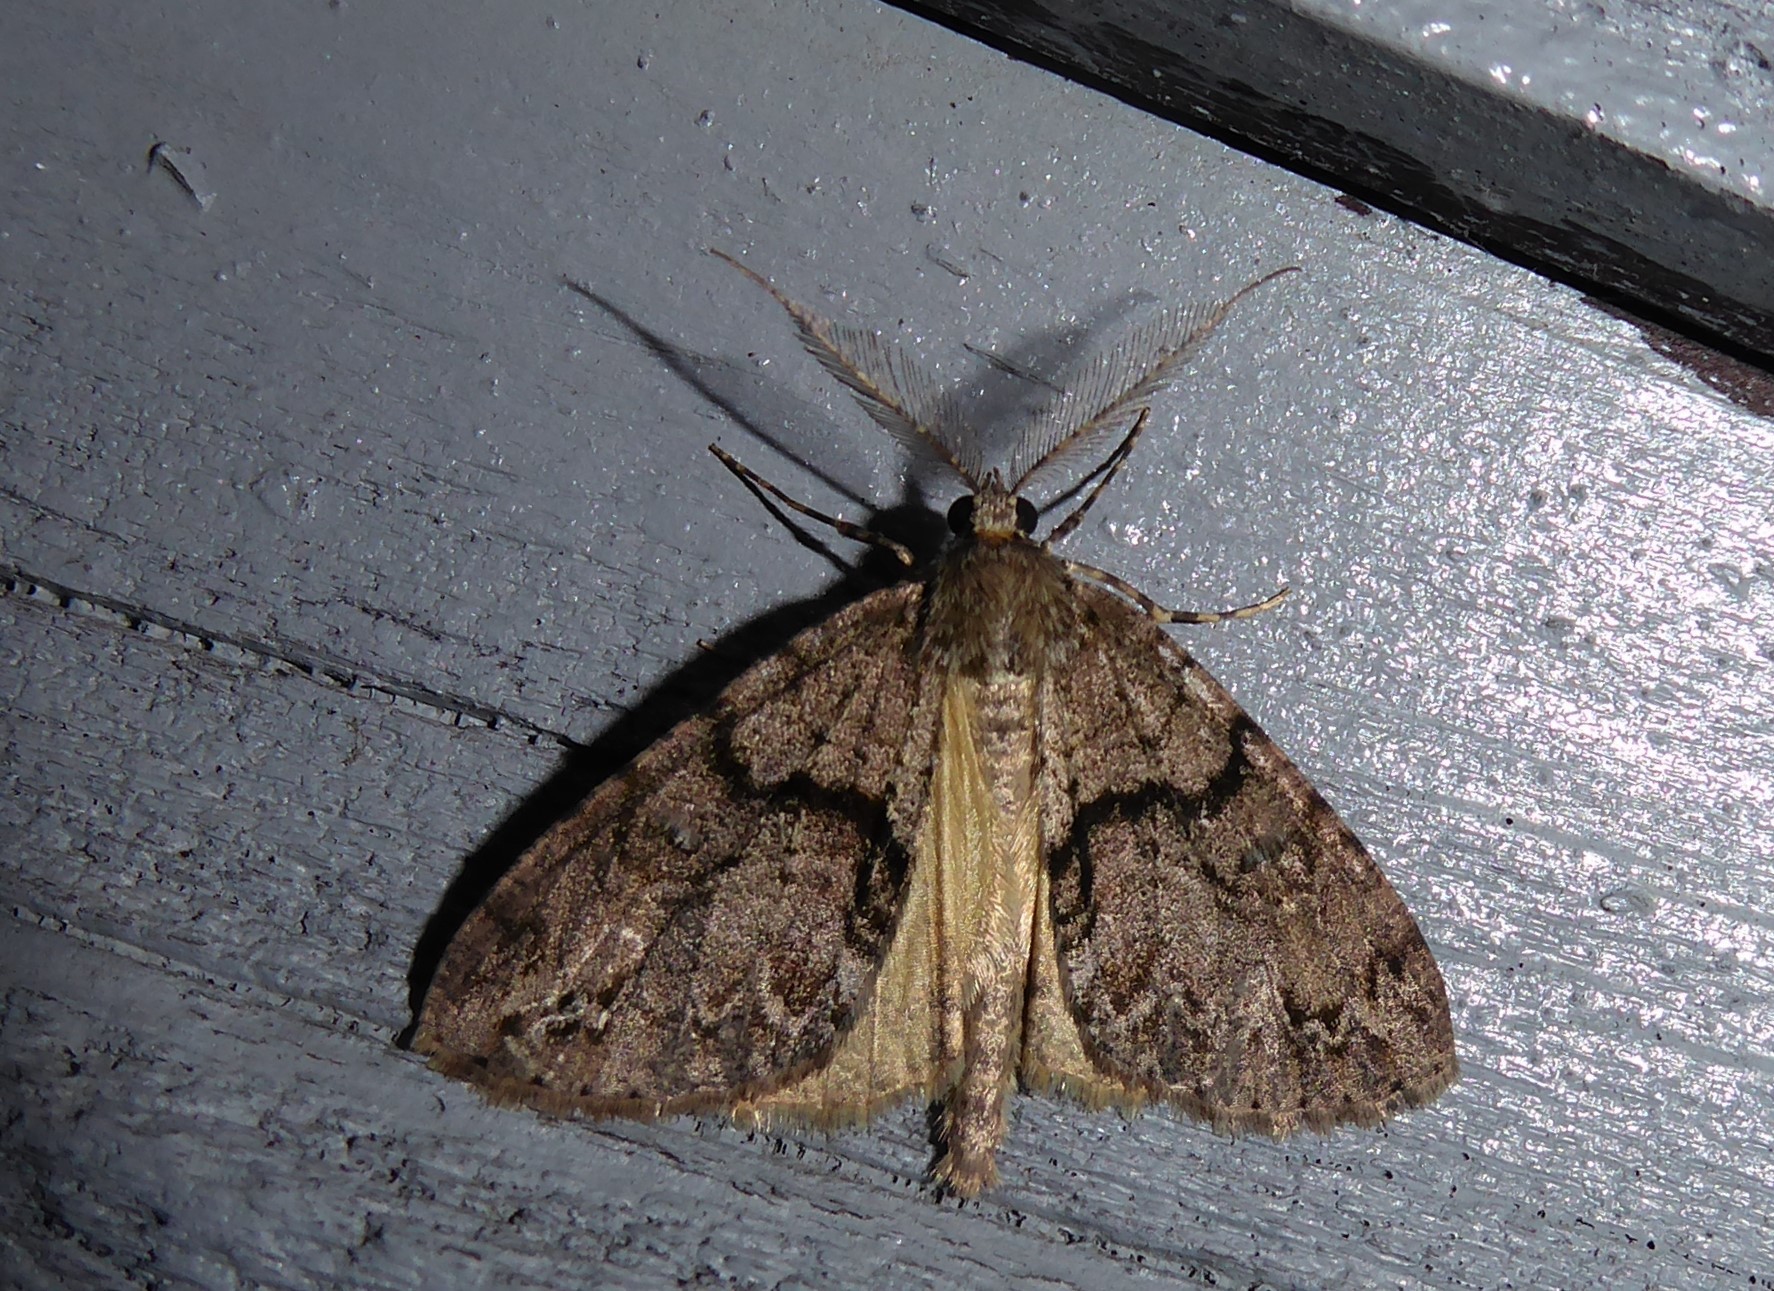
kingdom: Animalia
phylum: Arthropoda
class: Insecta
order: Lepidoptera
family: Geometridae
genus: Pseudocoremia
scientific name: Pseudocoremia suavis
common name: Common forest looper
